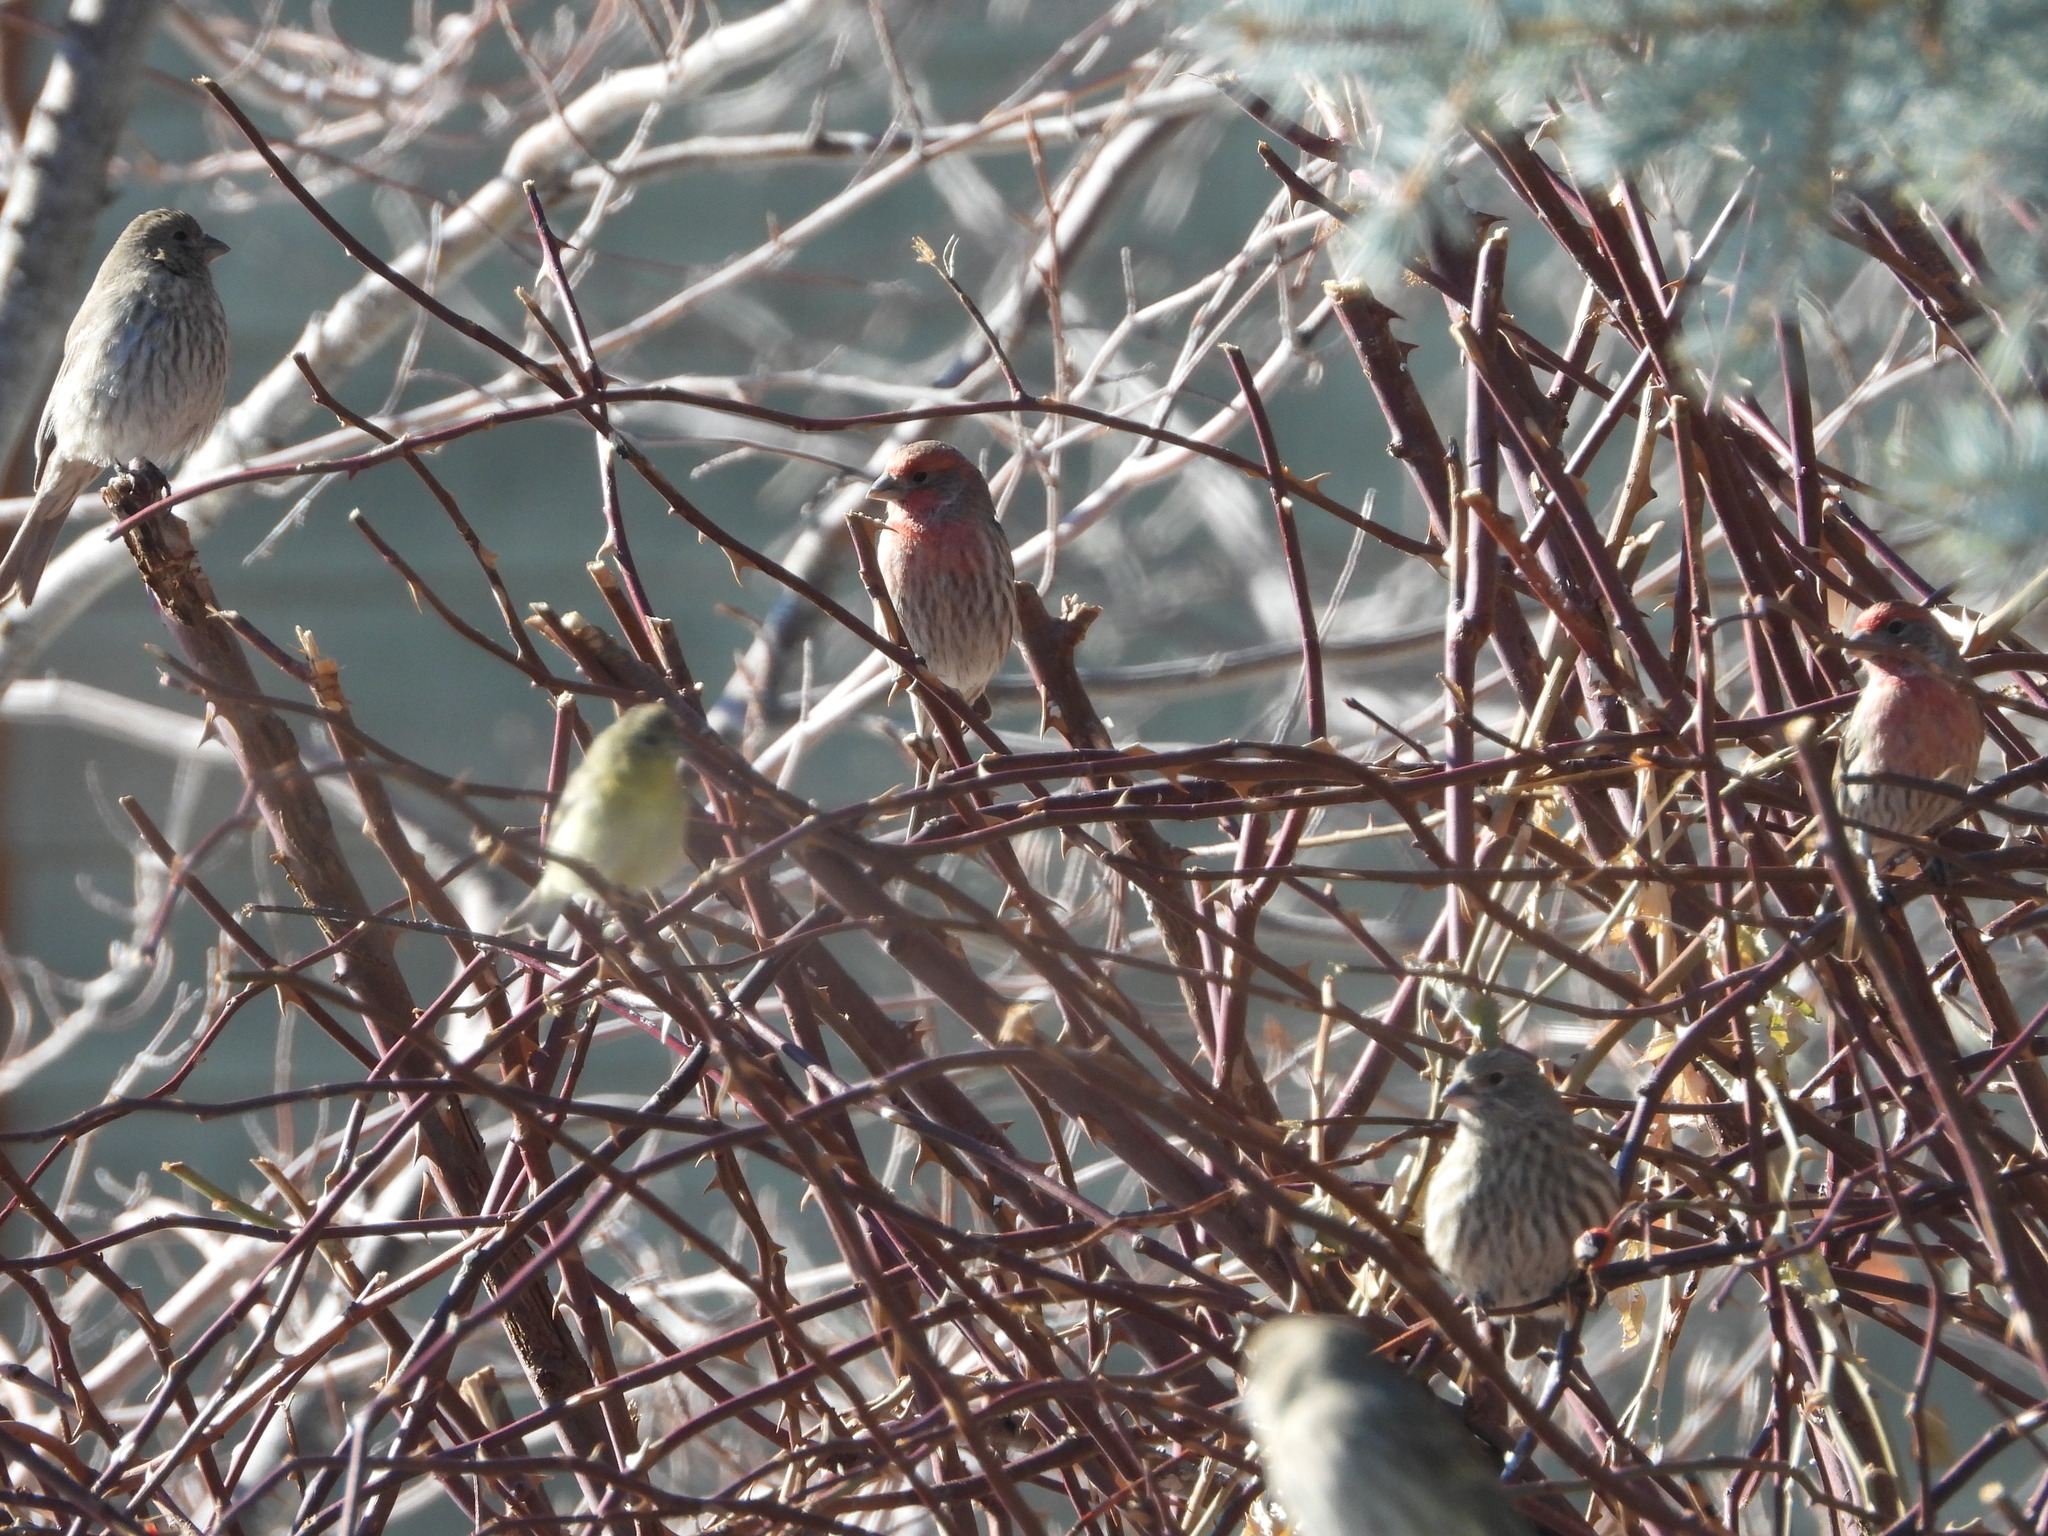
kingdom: Animalia
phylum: Chordata
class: Aves
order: Passeriformes
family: Fringillidae
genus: Spinus
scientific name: Spinus psaltria
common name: Lesser goldfinch
